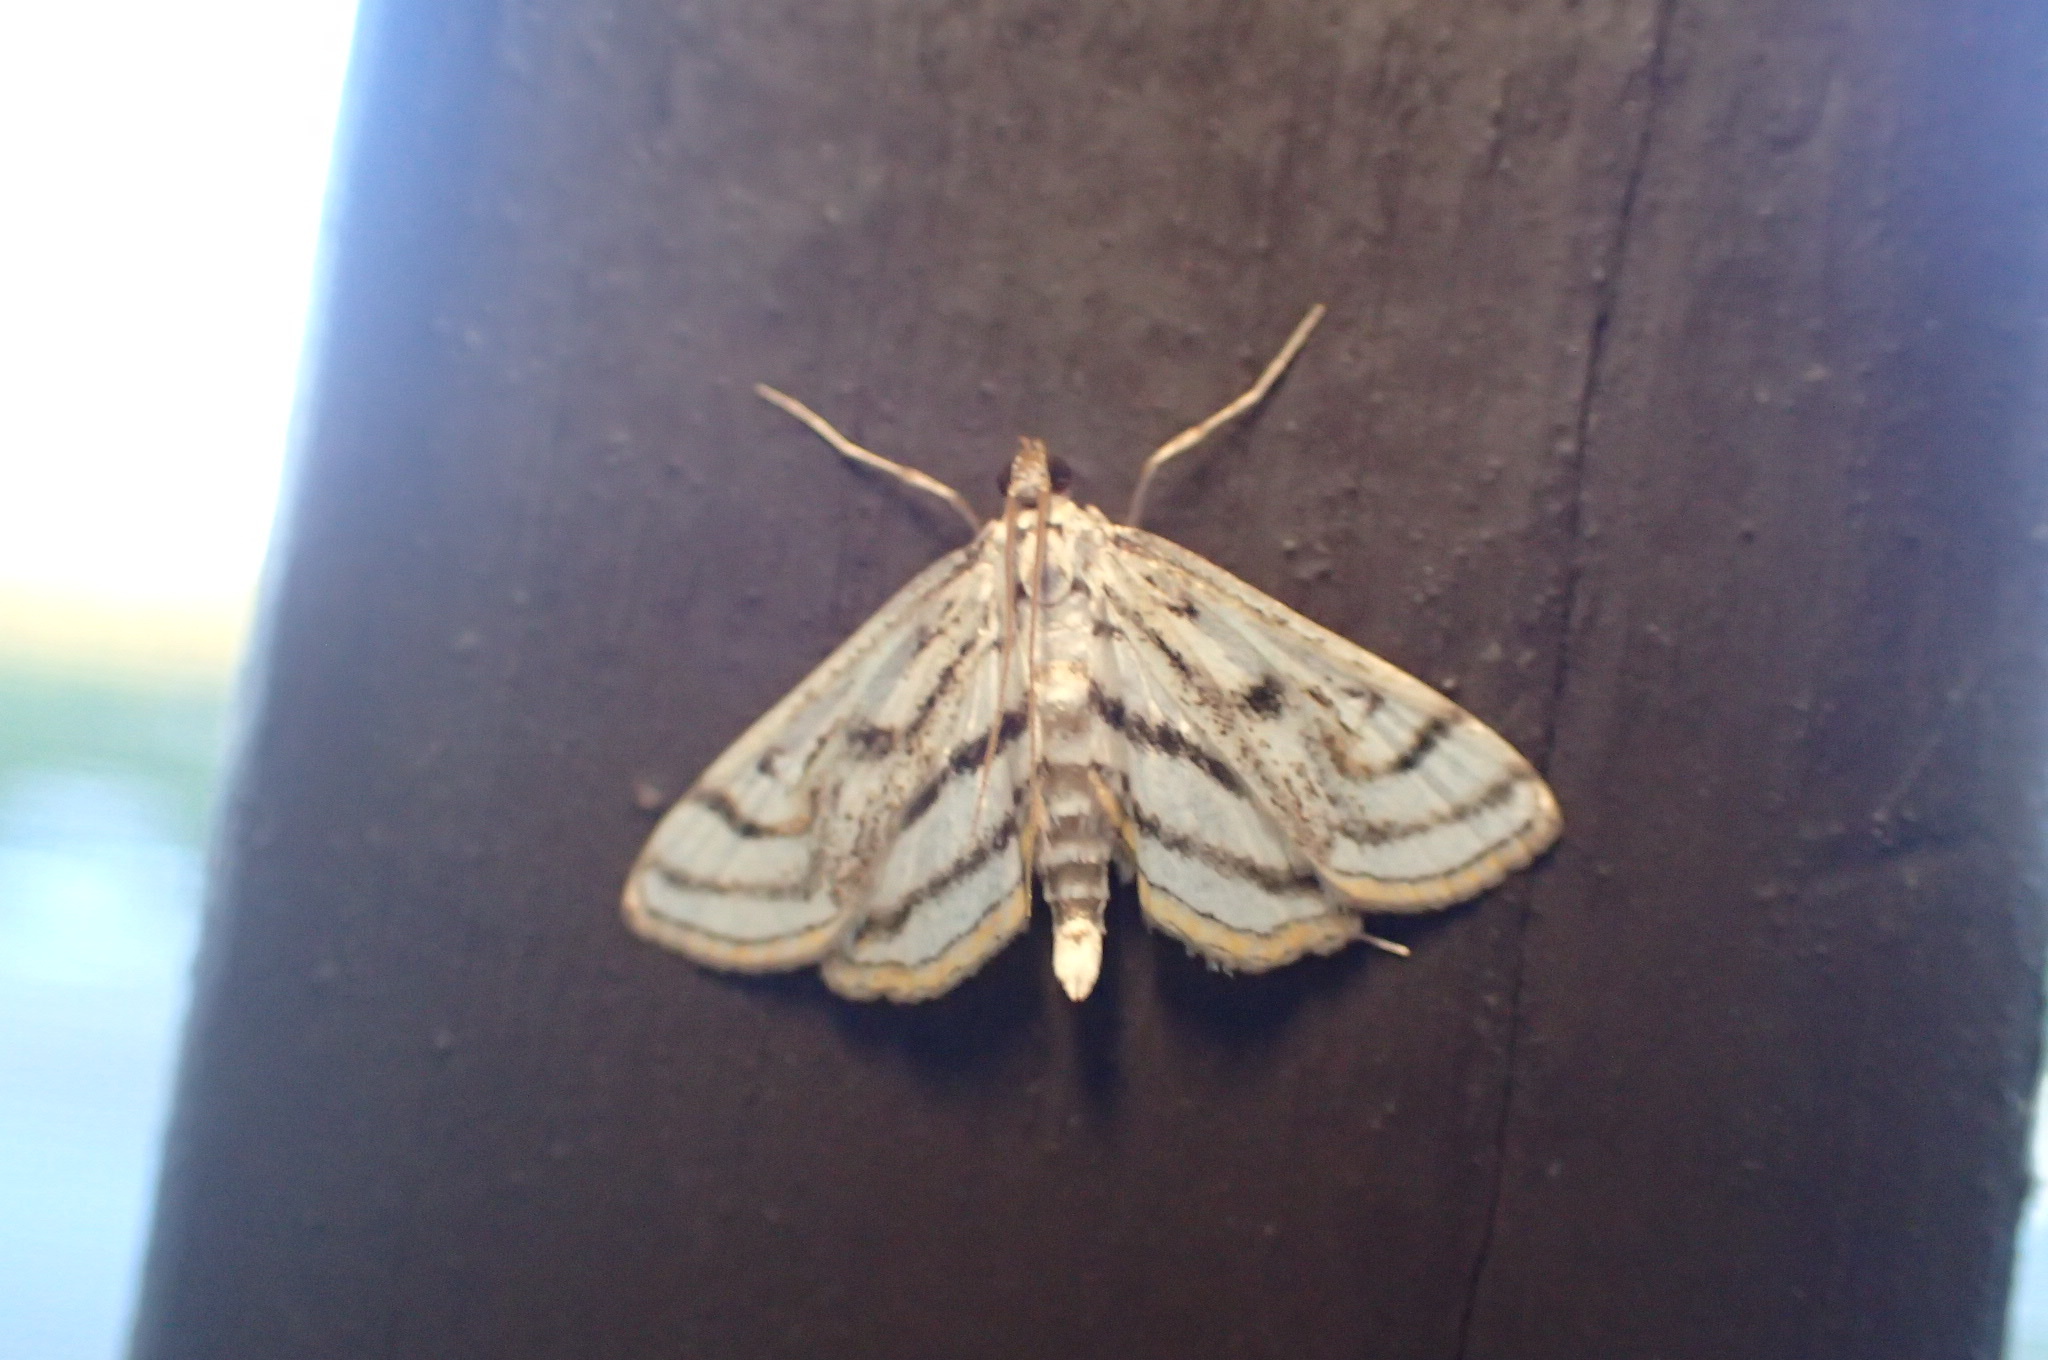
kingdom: Animalia
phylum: Arthropoda
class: Insecta
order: Lepidoptera
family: Crambidae
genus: Parapoynx
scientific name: Parapoynx badiusalis
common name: Chestnut-marked pondweed moth
